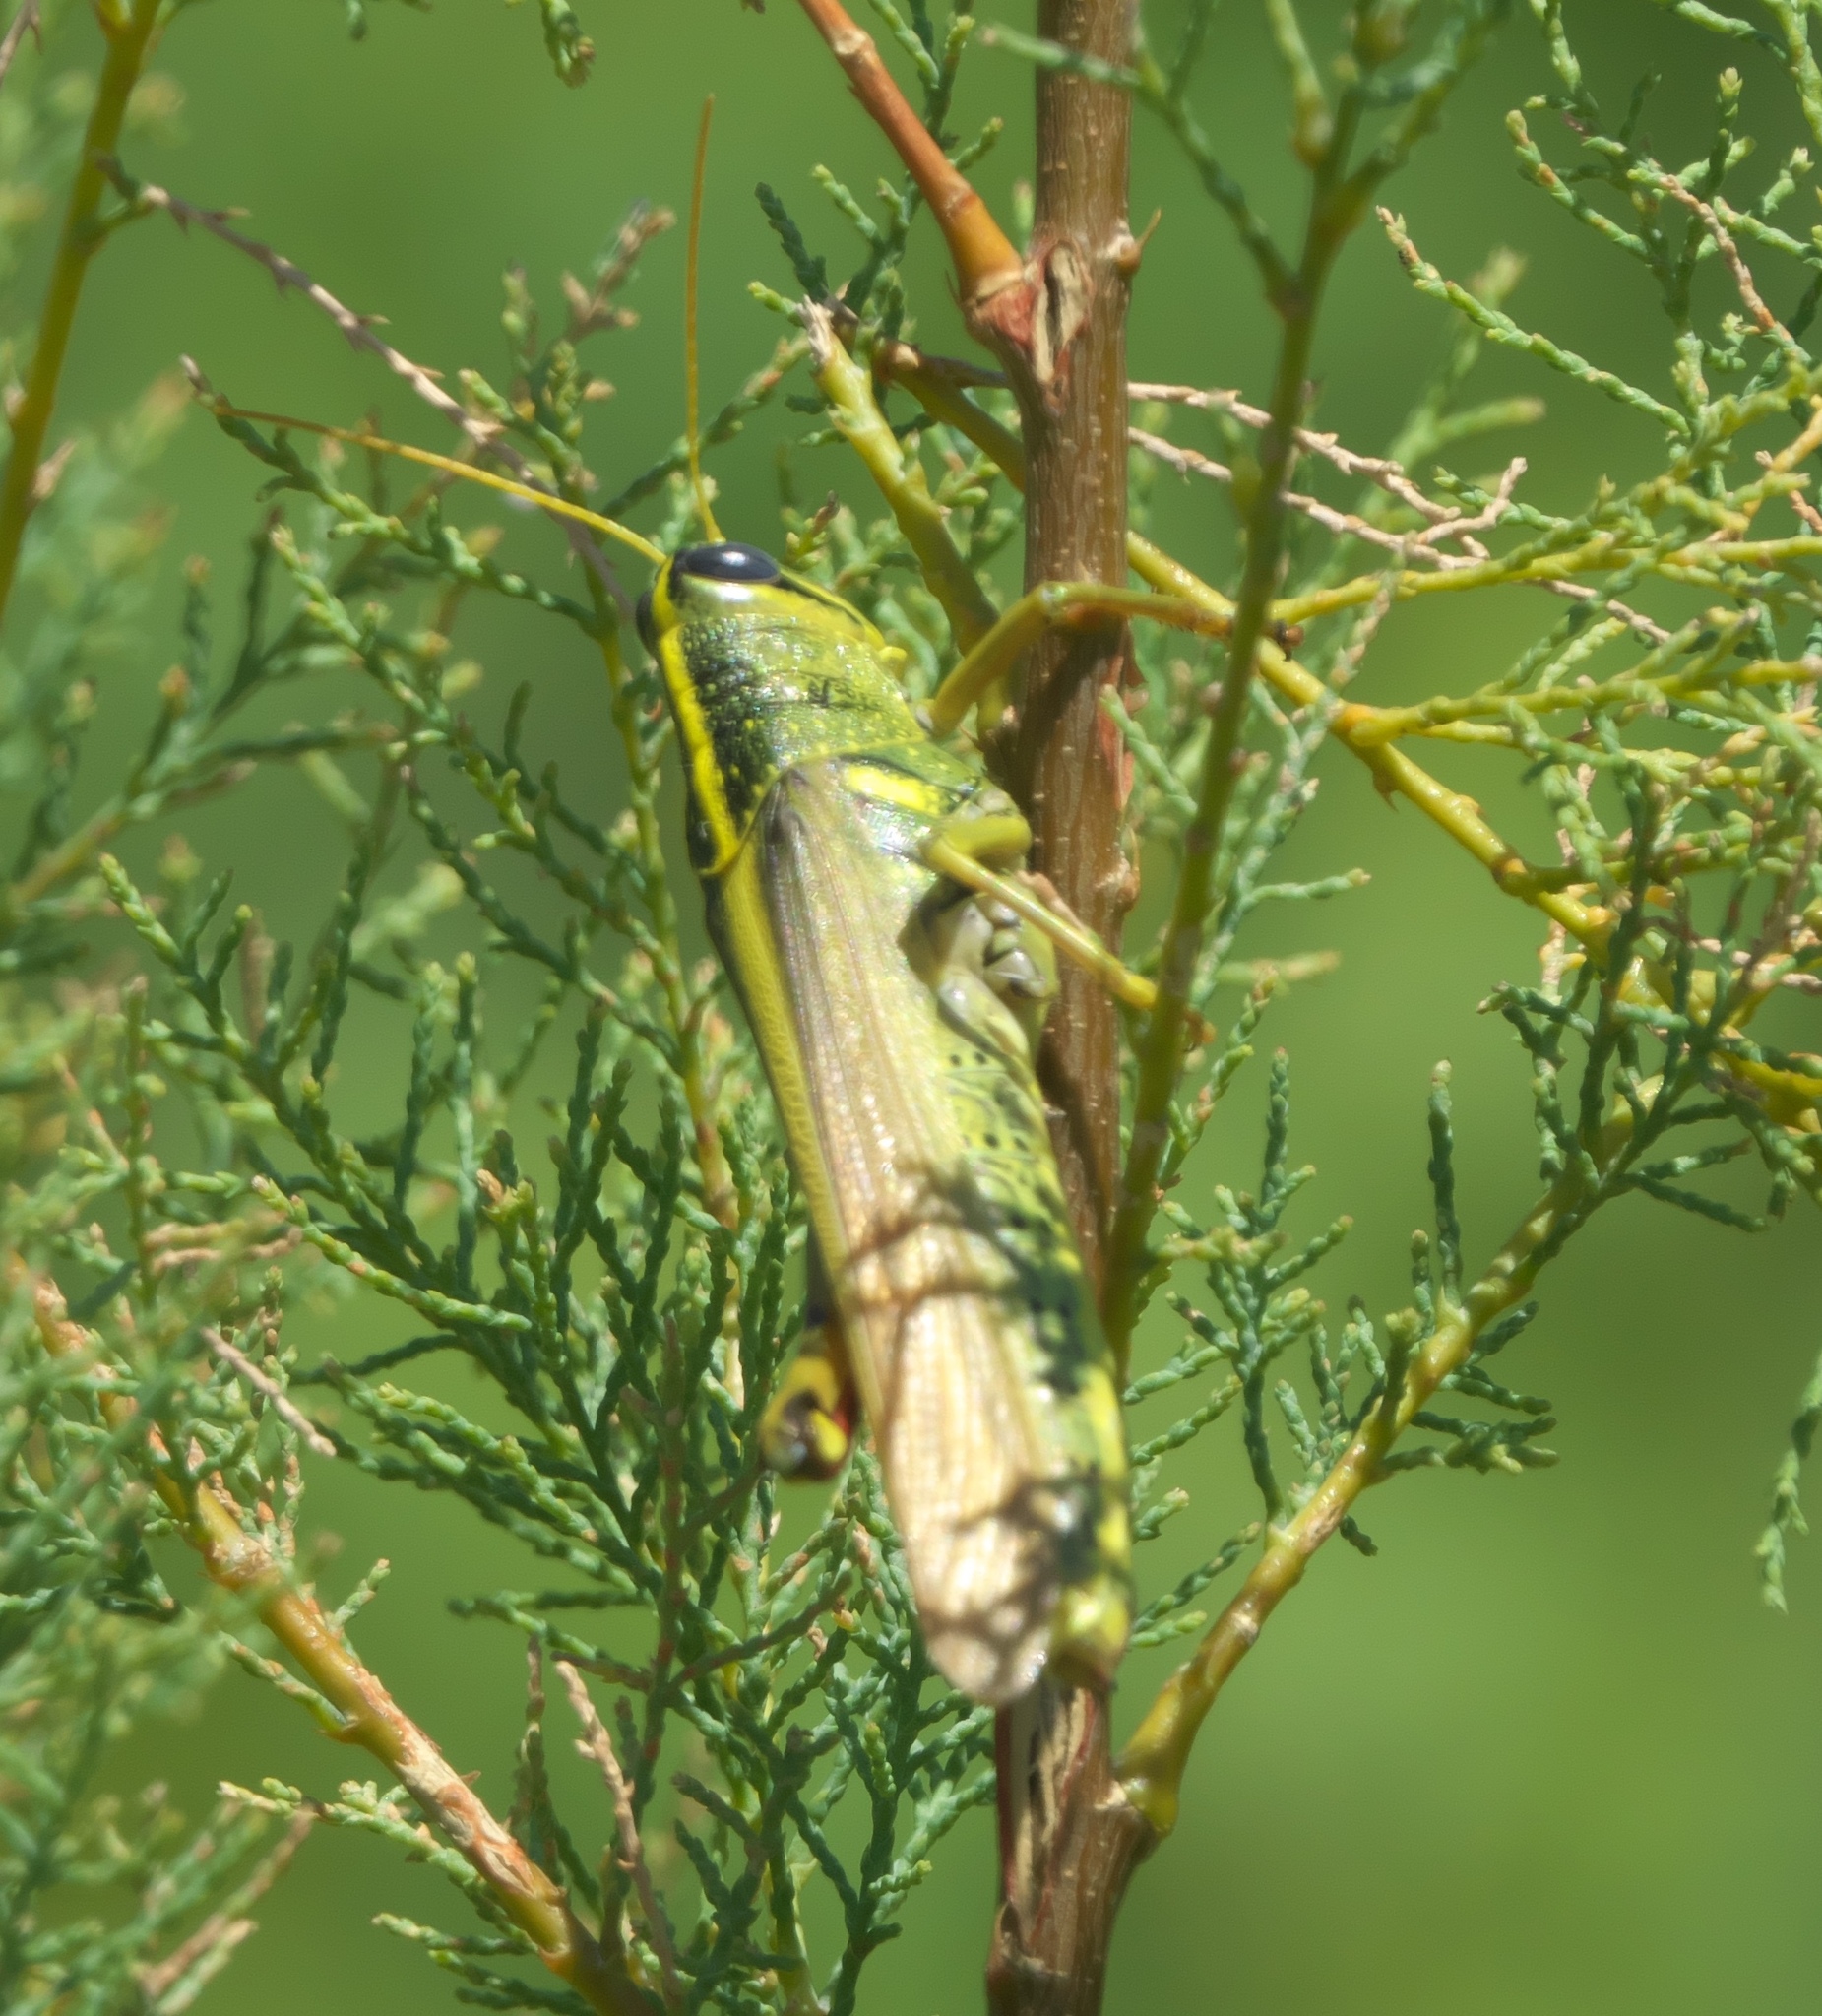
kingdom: Animalia
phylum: Arthropoda
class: Insecta
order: Orthoptera
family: Acrididae
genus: Schistocerca
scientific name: Schistocerca lineata
